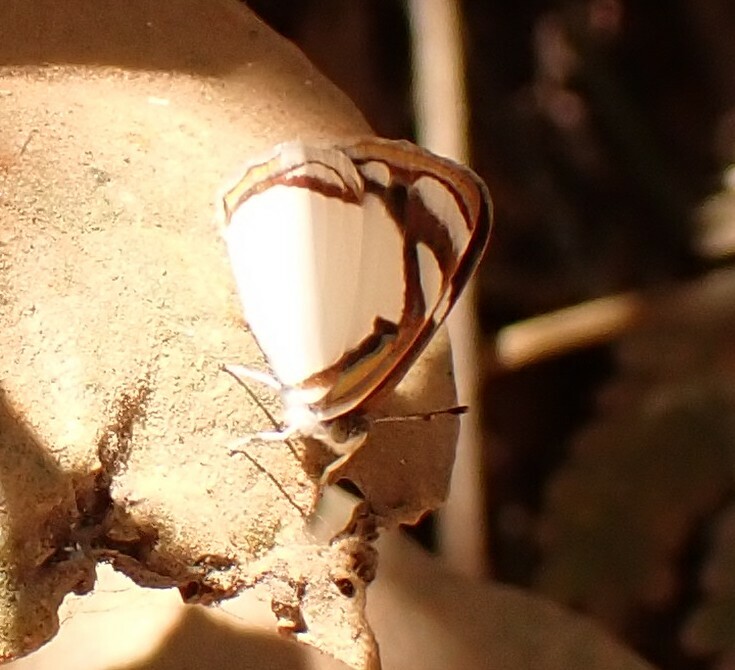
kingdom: Animalia
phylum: Arthropoda
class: Insecta
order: Lepidoptera
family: Nymphalidae
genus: Dynamine
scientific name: Dynamine agacles
